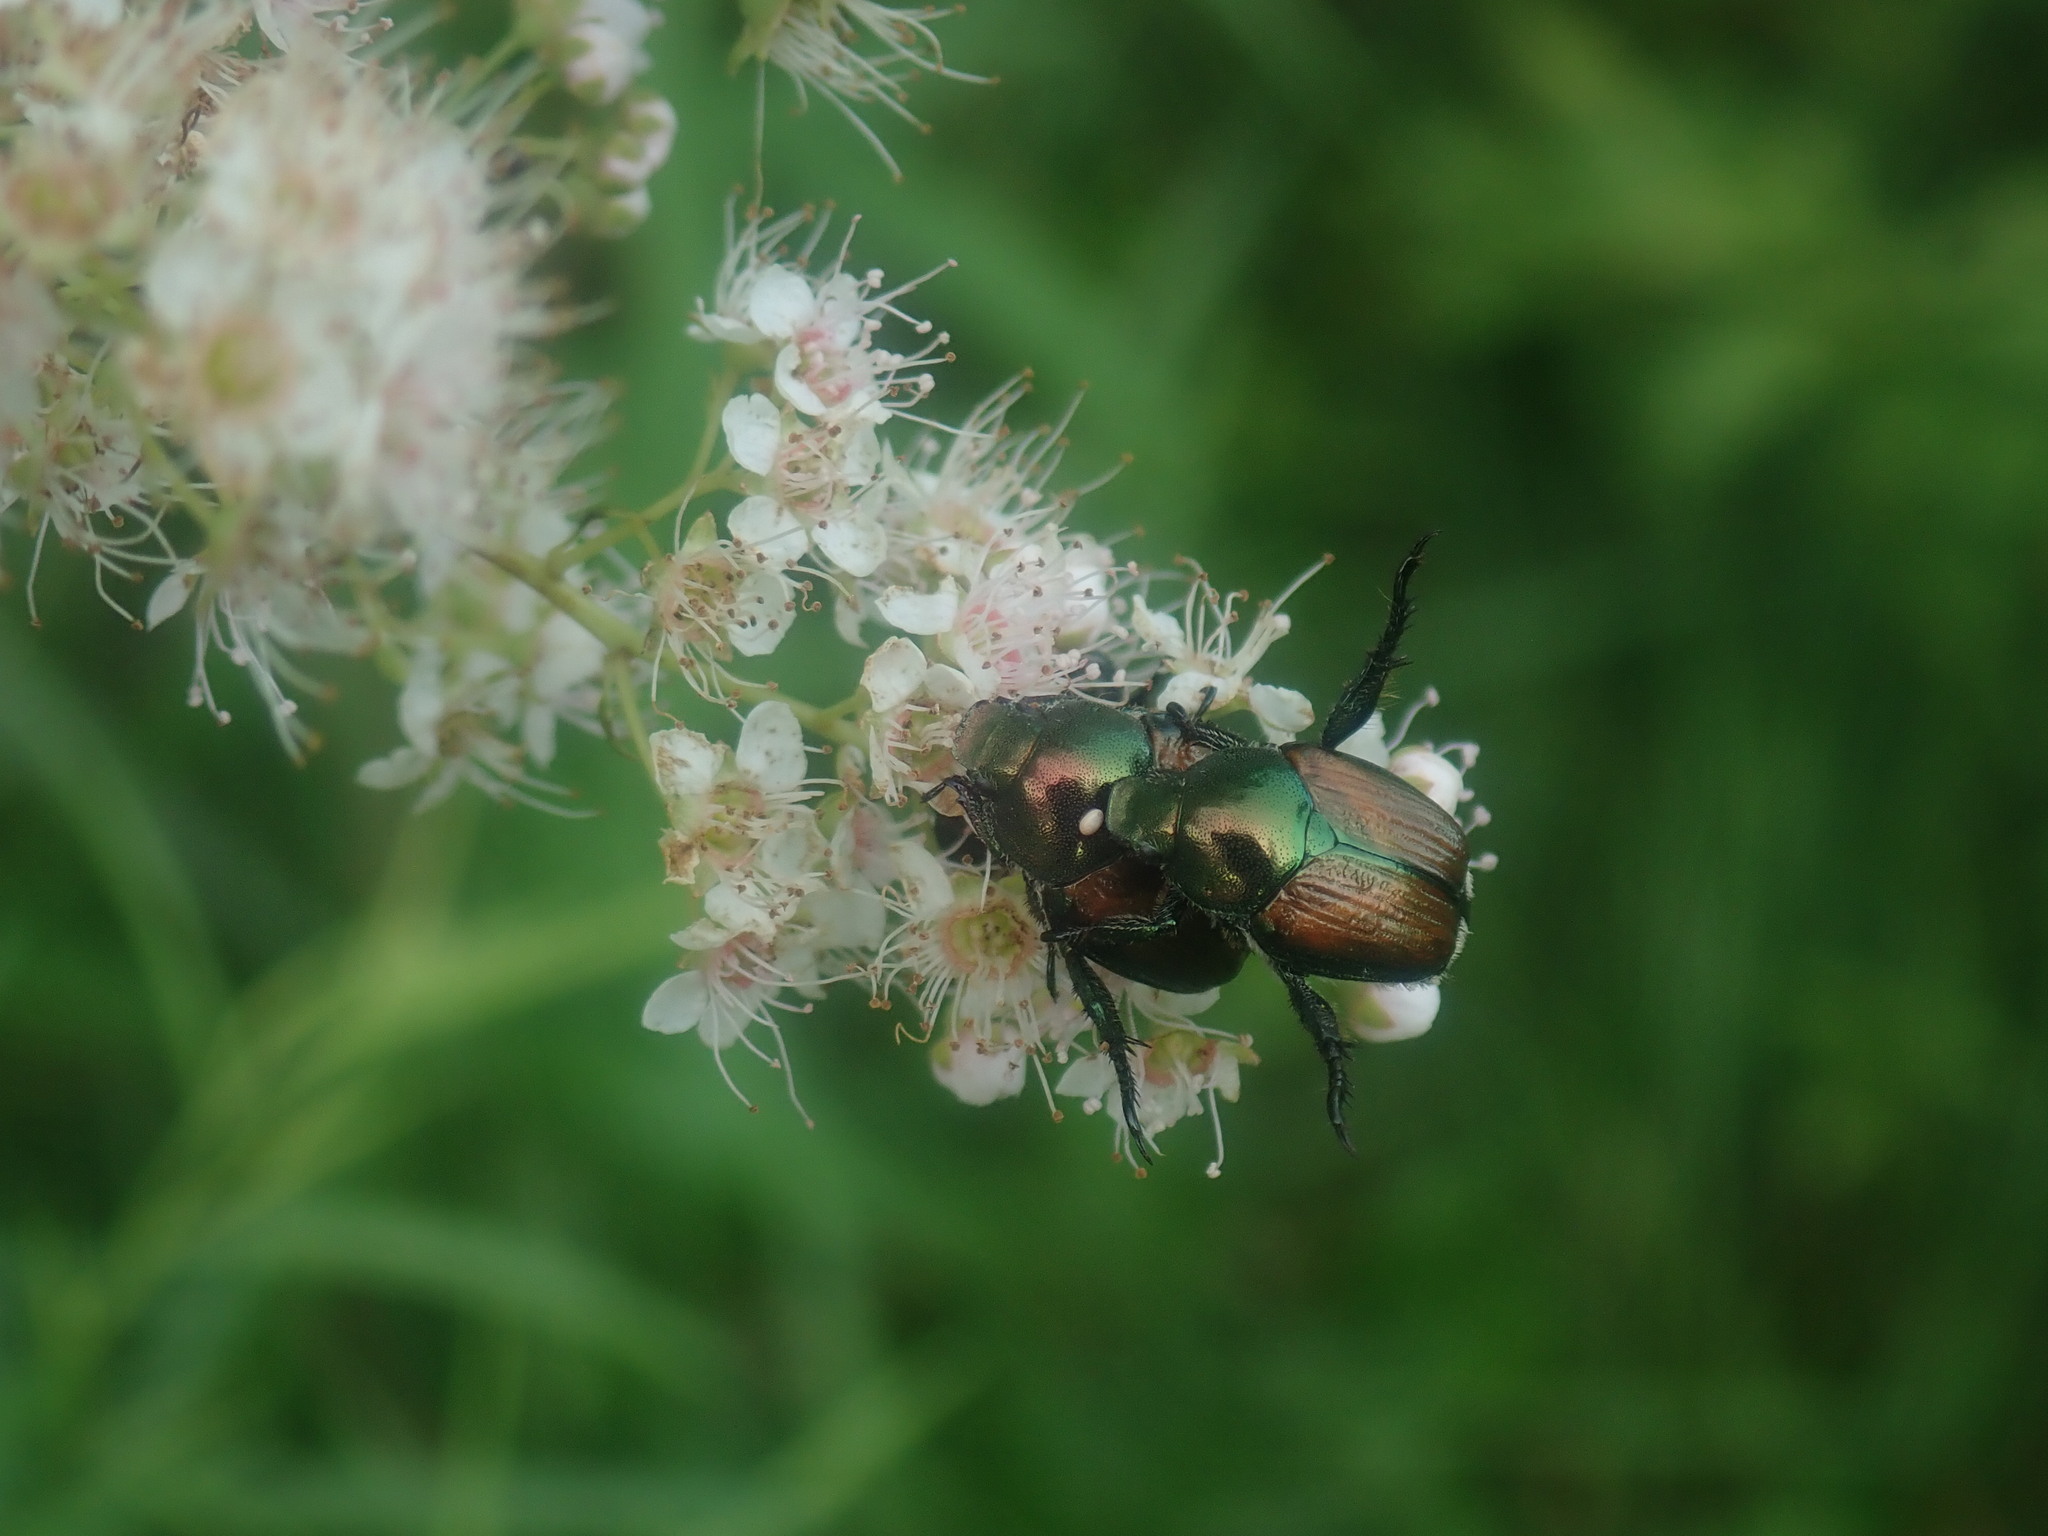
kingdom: Animalia
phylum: Arthropoda
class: Insecta
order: Diptera
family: Tachinidae
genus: Istocheta
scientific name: Istocheta aldrichi
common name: Parasitic wasp
